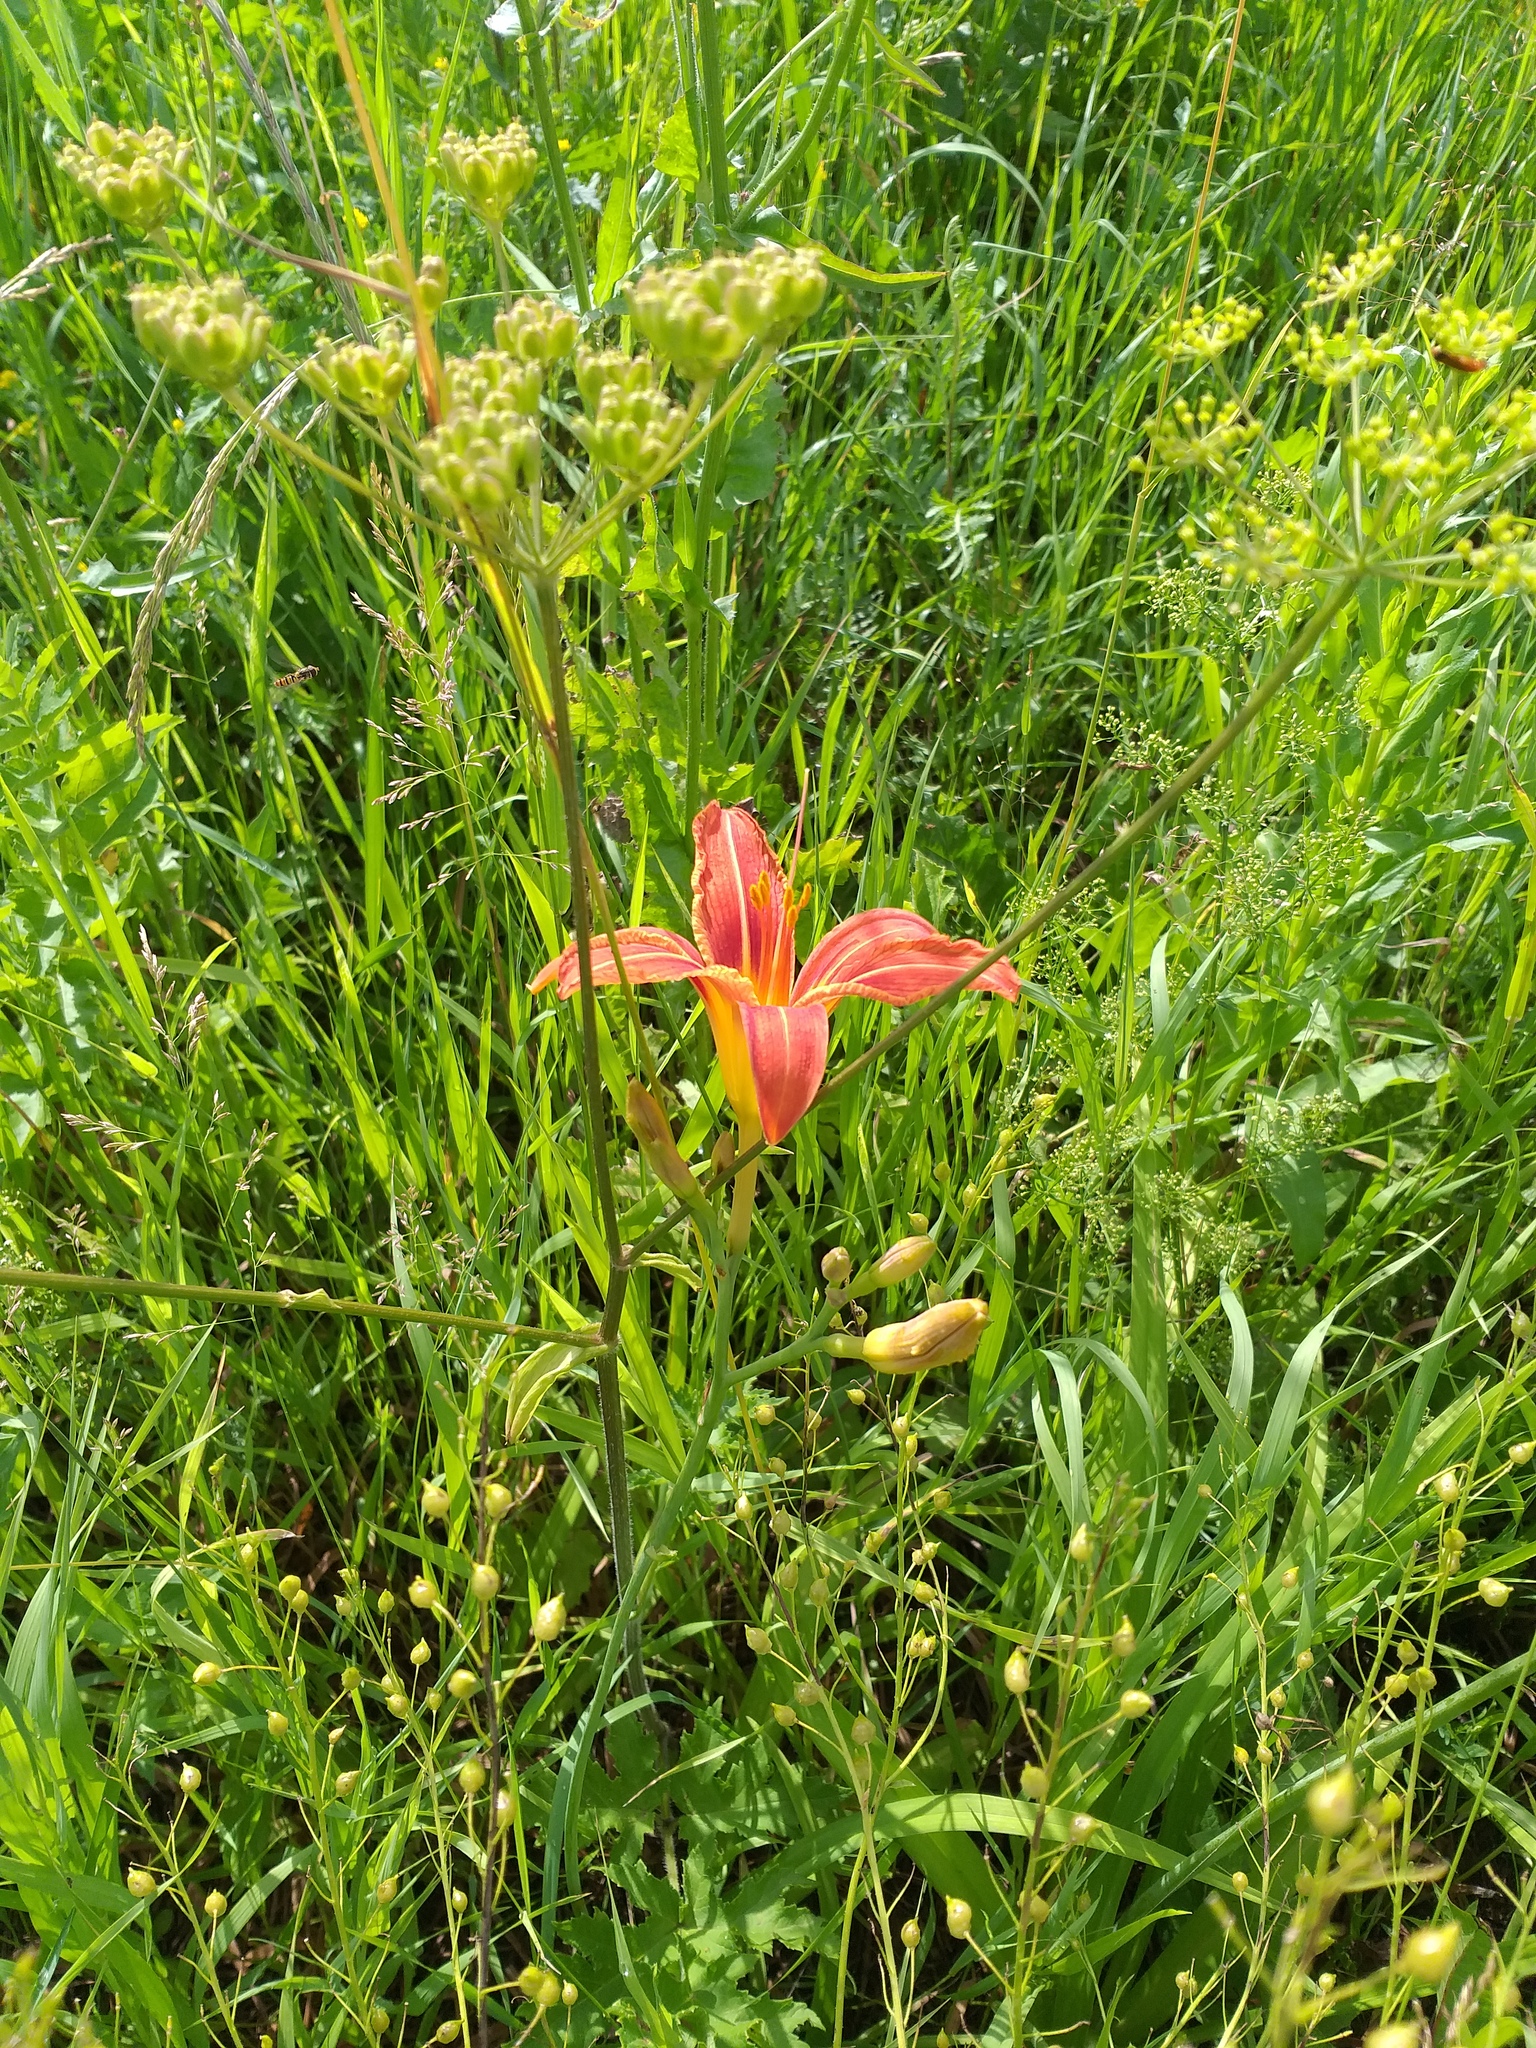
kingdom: Plantae
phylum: Tracheophyta
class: Liliopsida
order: Asparagales
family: Asphodelaceae
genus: Hemerocallis
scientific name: Hemerocallis fulva
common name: Orange day-lily
